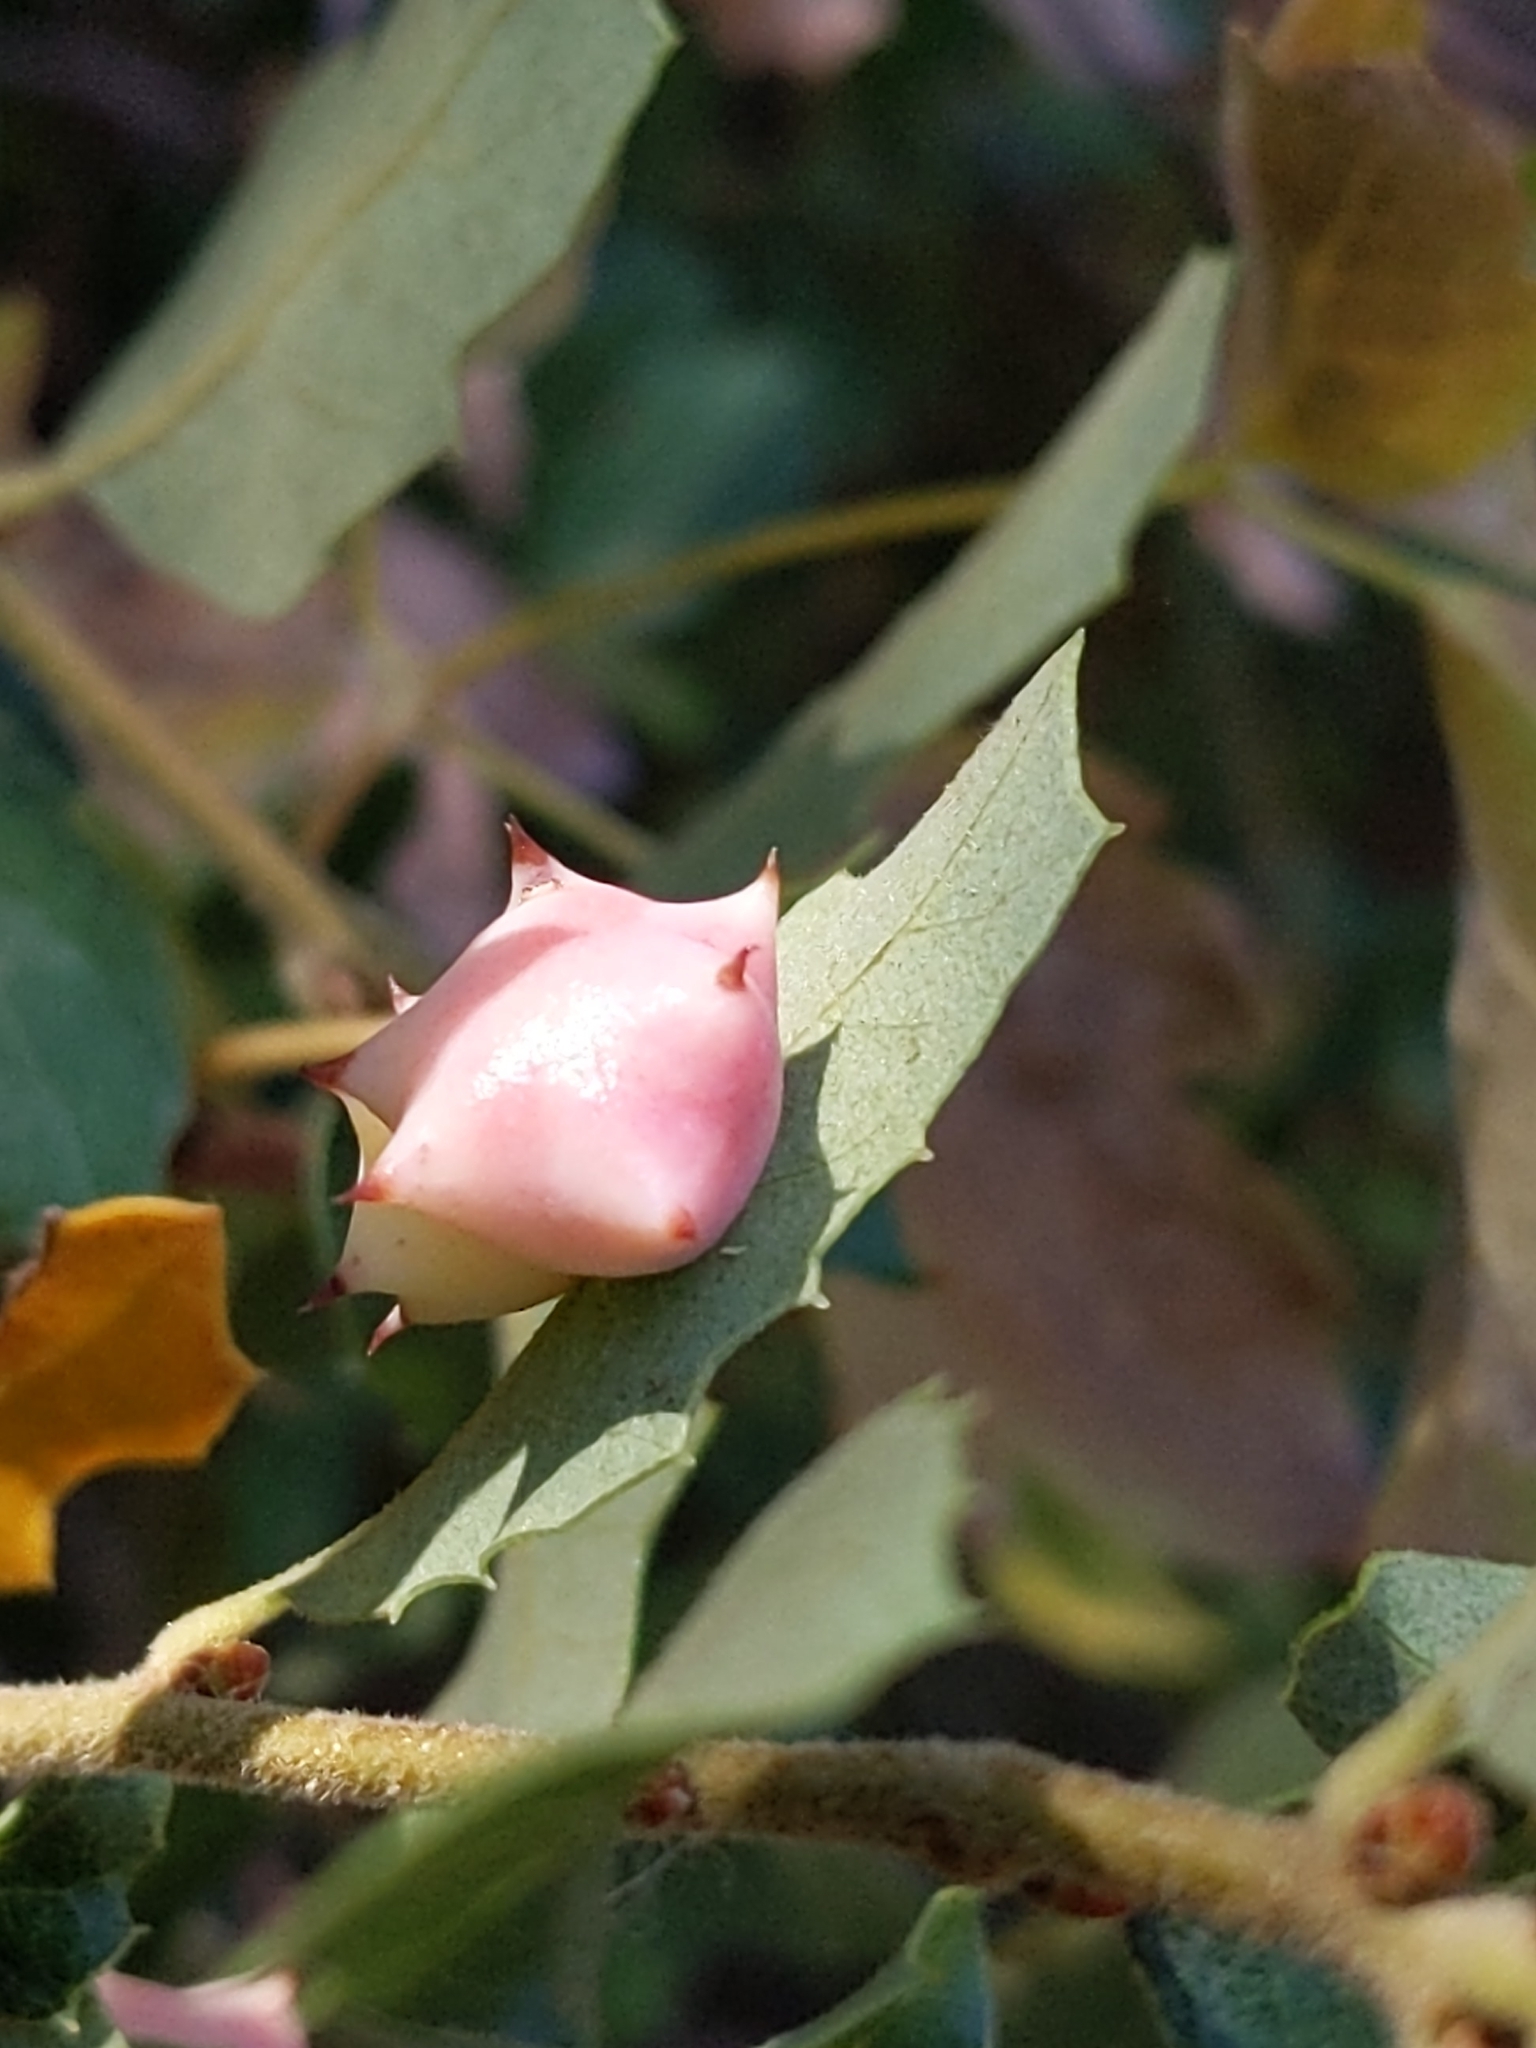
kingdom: Animalia
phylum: Arthropoda
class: Insecta
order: Hymenoptera
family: Cynipidae
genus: Cynips
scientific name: Cynips douglasi
